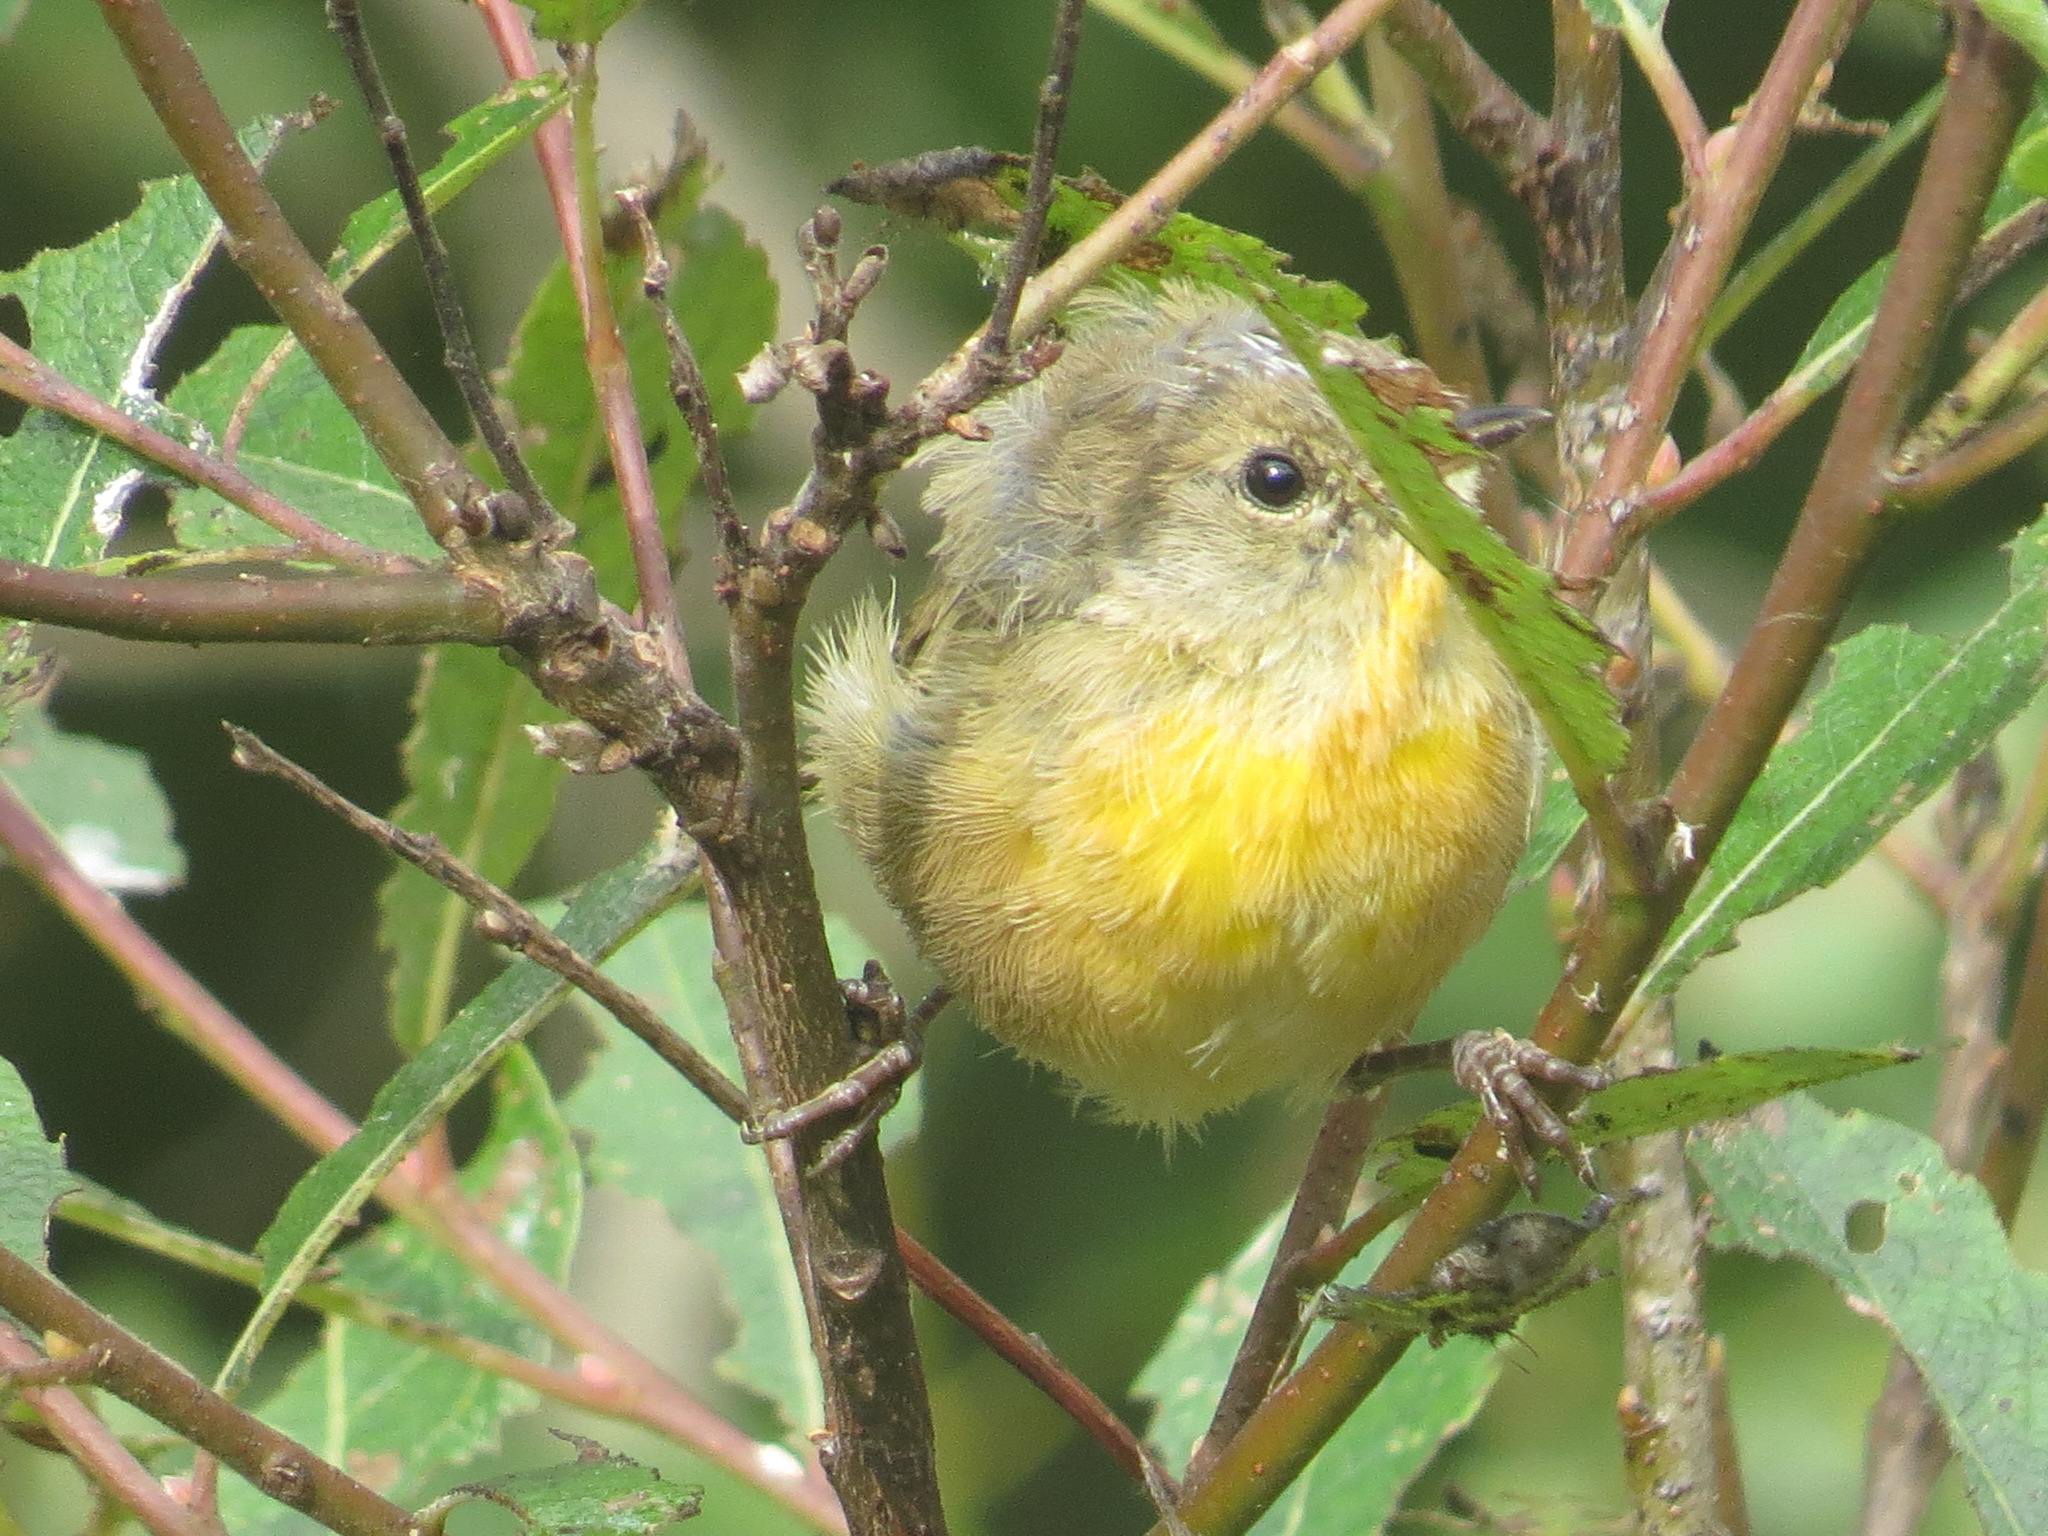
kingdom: Animalia
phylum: Chordata
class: Aves
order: Passeriformes
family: Parulidae
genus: Geothlypis
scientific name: Geothlypis trichas
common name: Common yellowthroat
